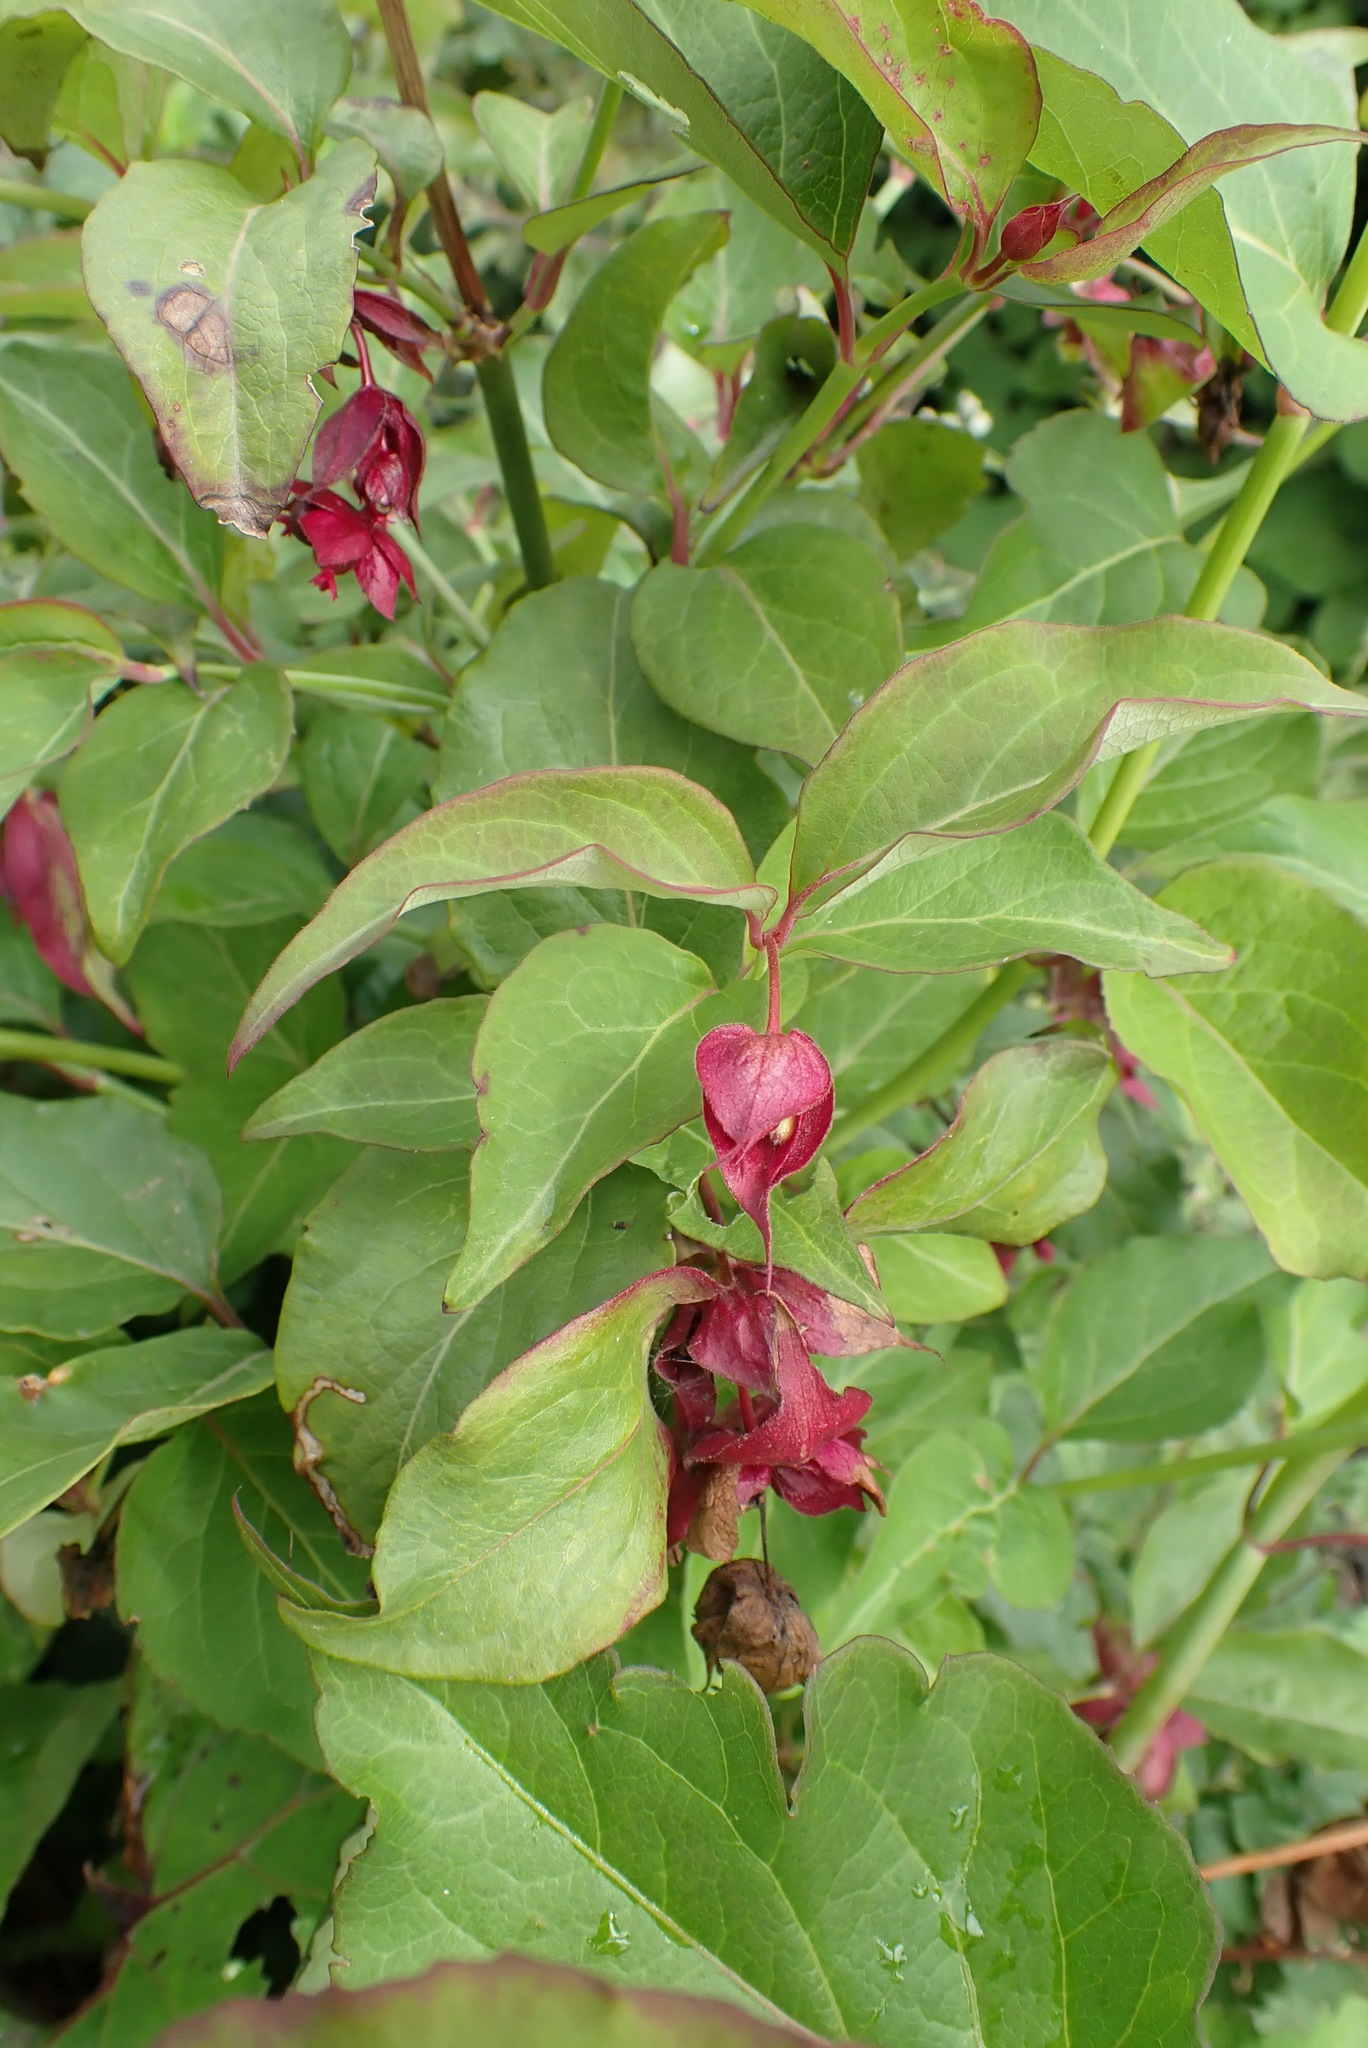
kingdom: Plantae
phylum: Tracheophyta
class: Magnoliopsida
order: Dipsacales
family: Caprifoliaceae
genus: Leycesteria
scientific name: Leycesteria formosa
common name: Himalayan honeysuckle
